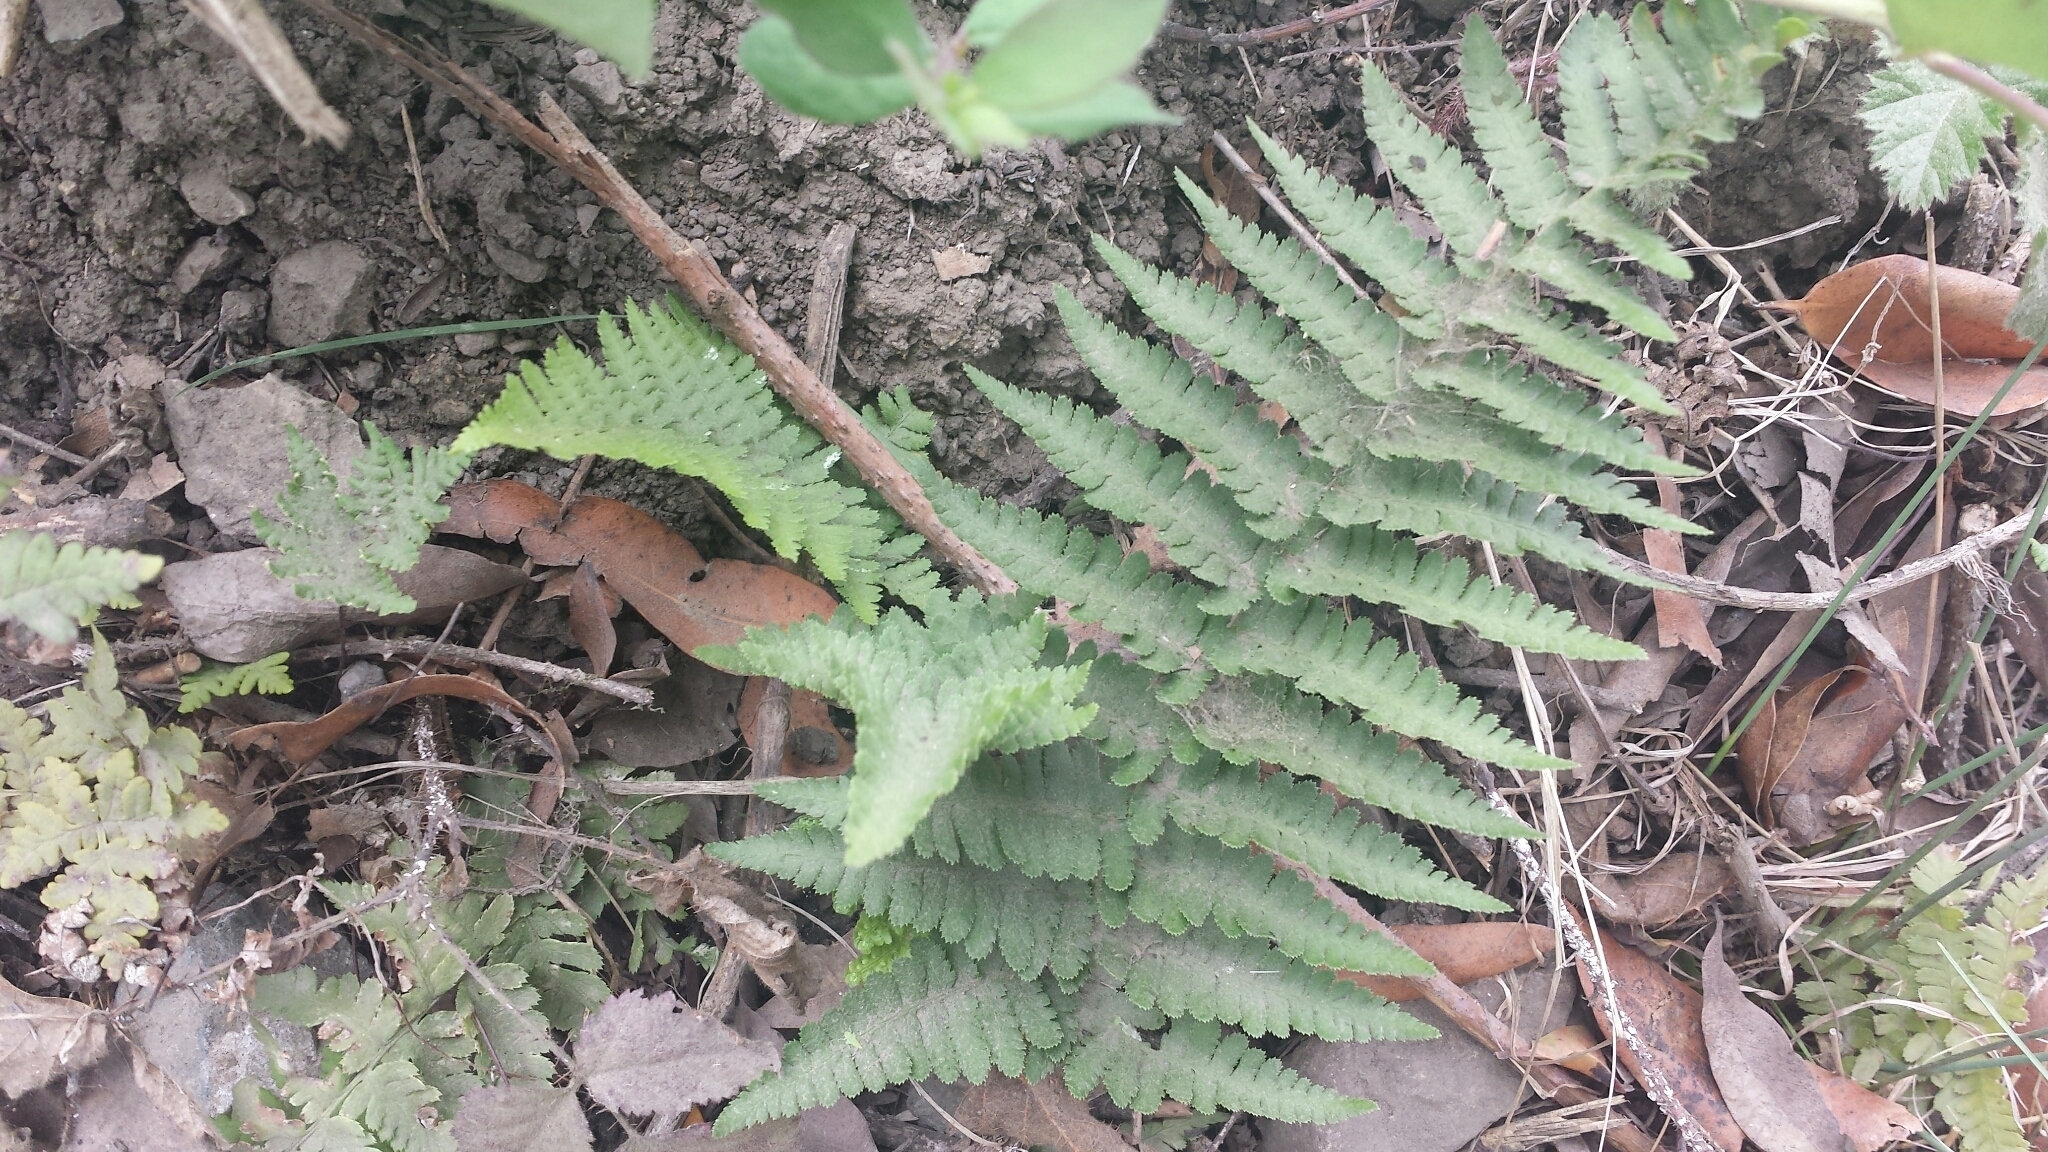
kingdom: Plantae
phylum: Tracheophyta
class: Polypodiopsida
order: Polypodiales
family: Dryopteridaceae
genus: Dryopteris
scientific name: Dryopteris arguta
